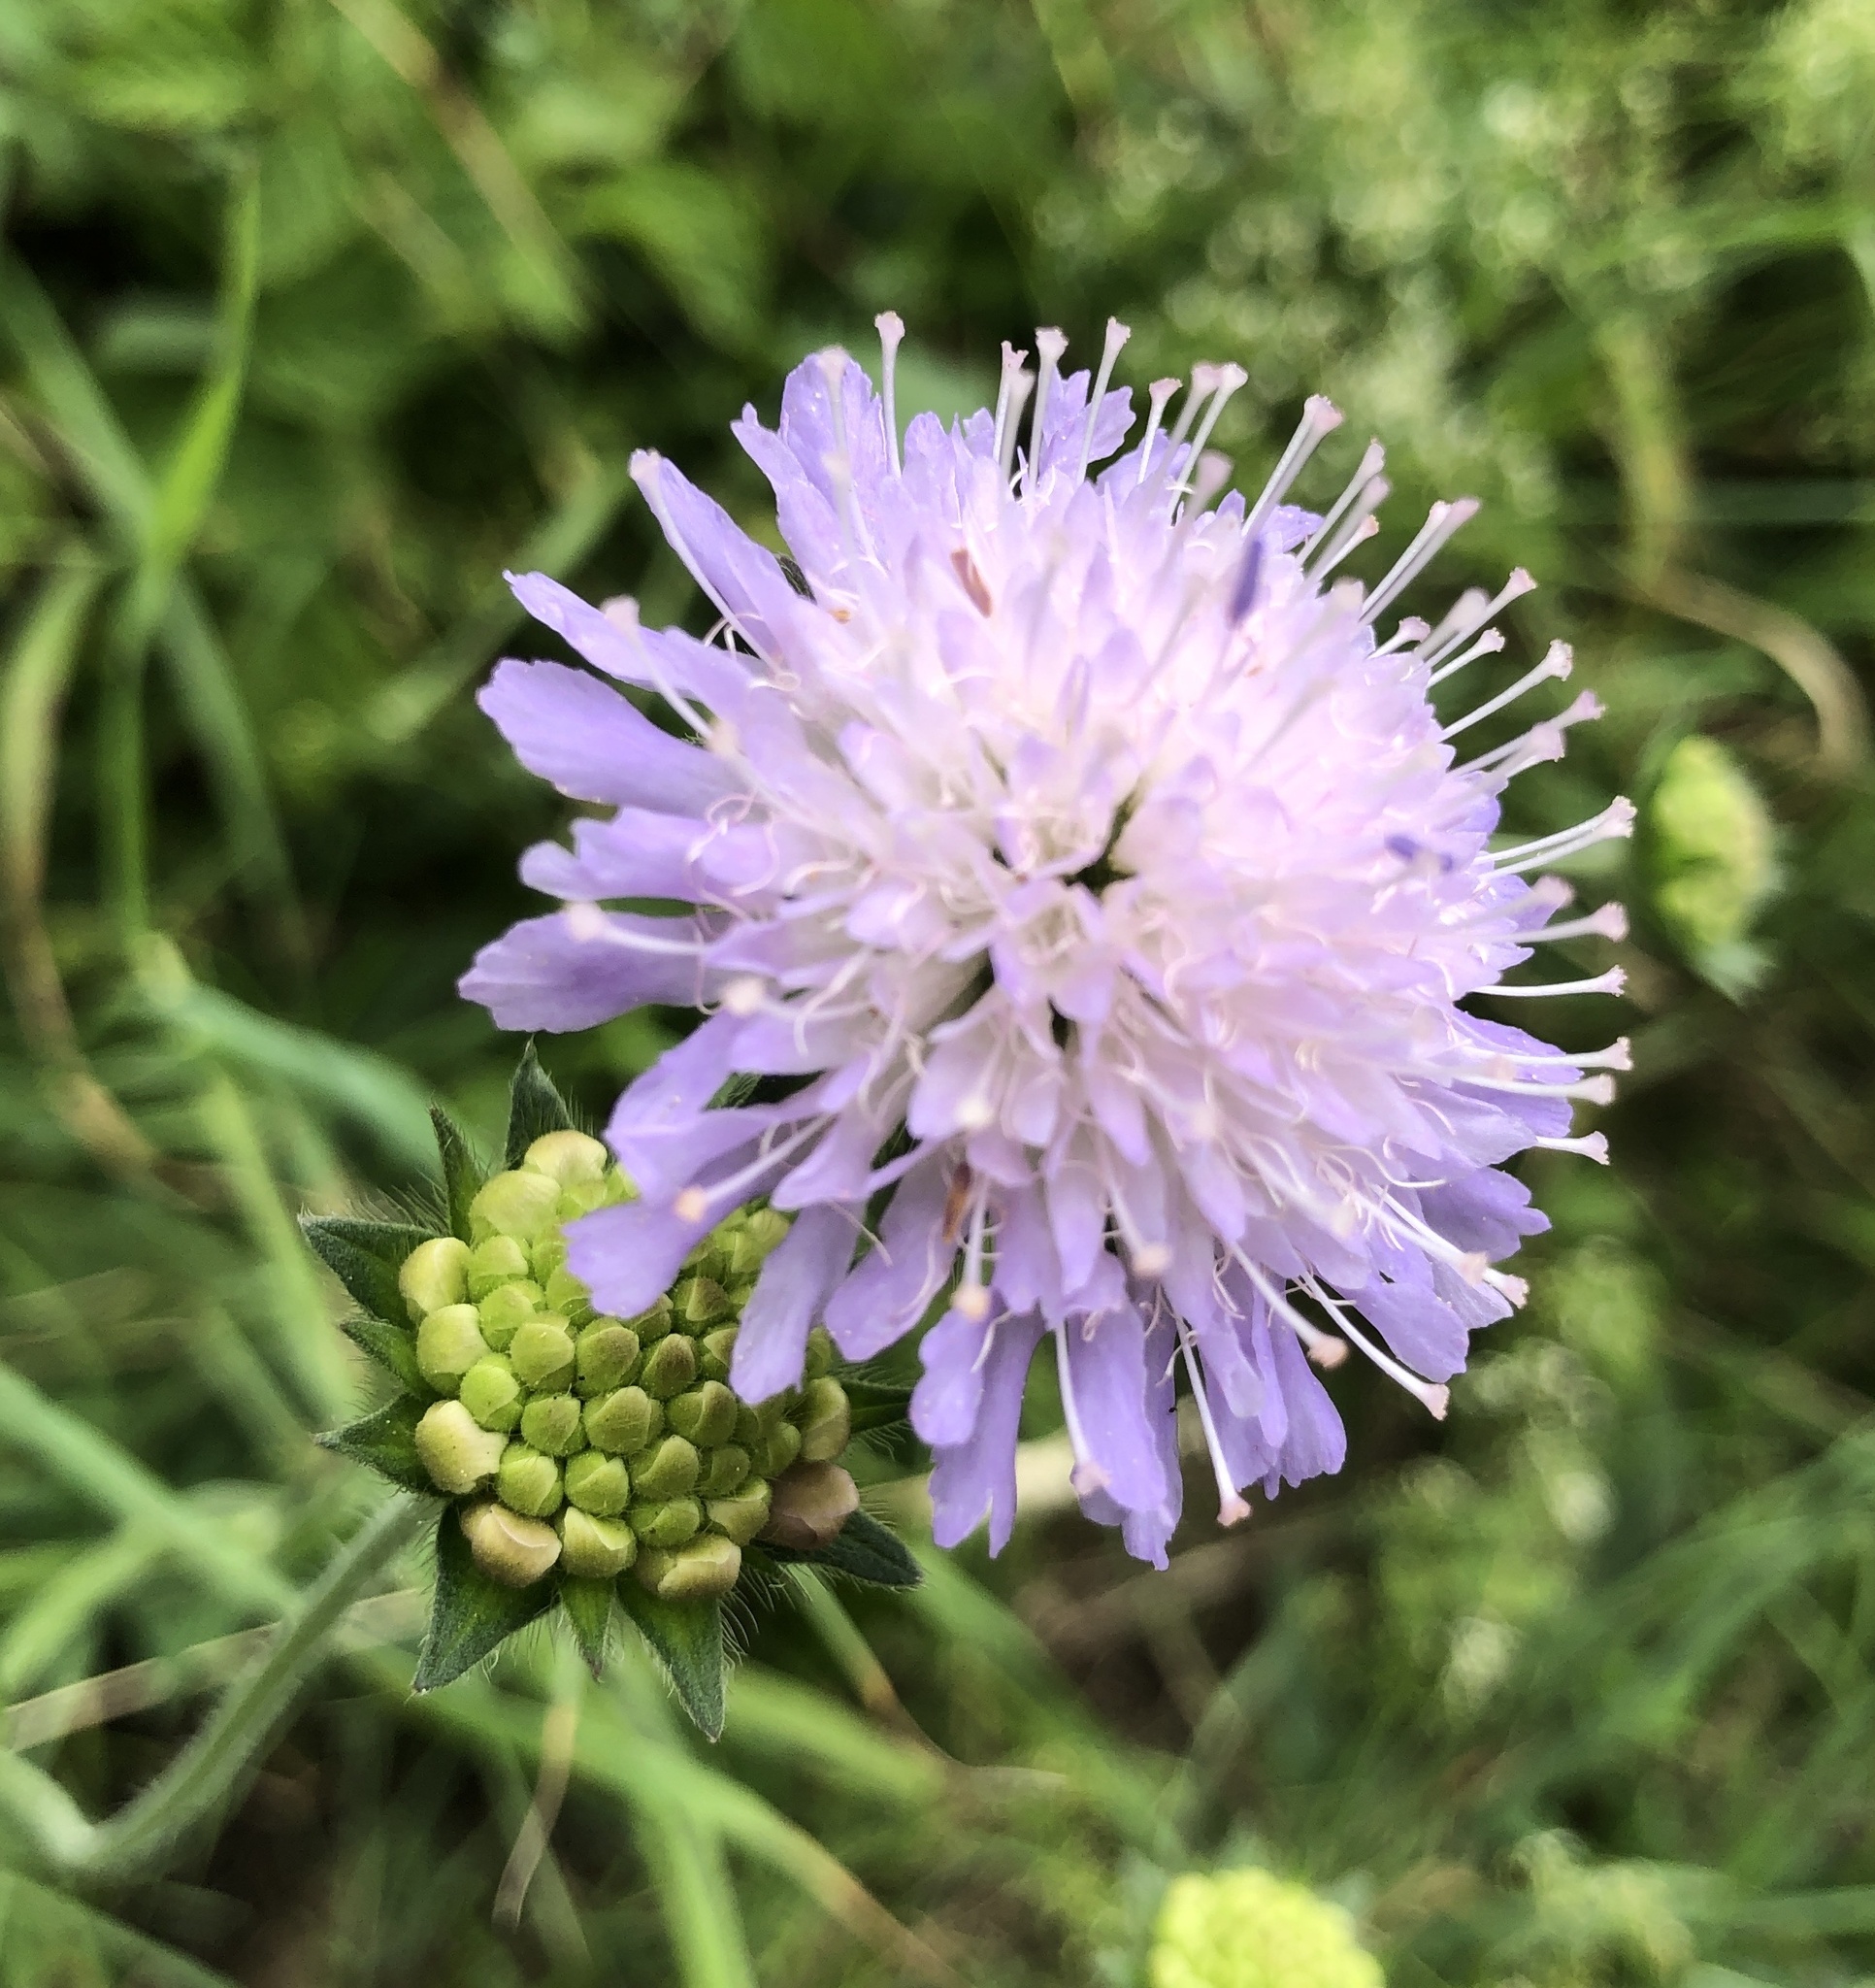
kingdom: Plantae
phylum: Tracheophyta
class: Magnoliopsida
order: Dipsacales
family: Caprifoliaceae
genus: Knautia
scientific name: Knautia arvensis
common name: Field scabiosa
